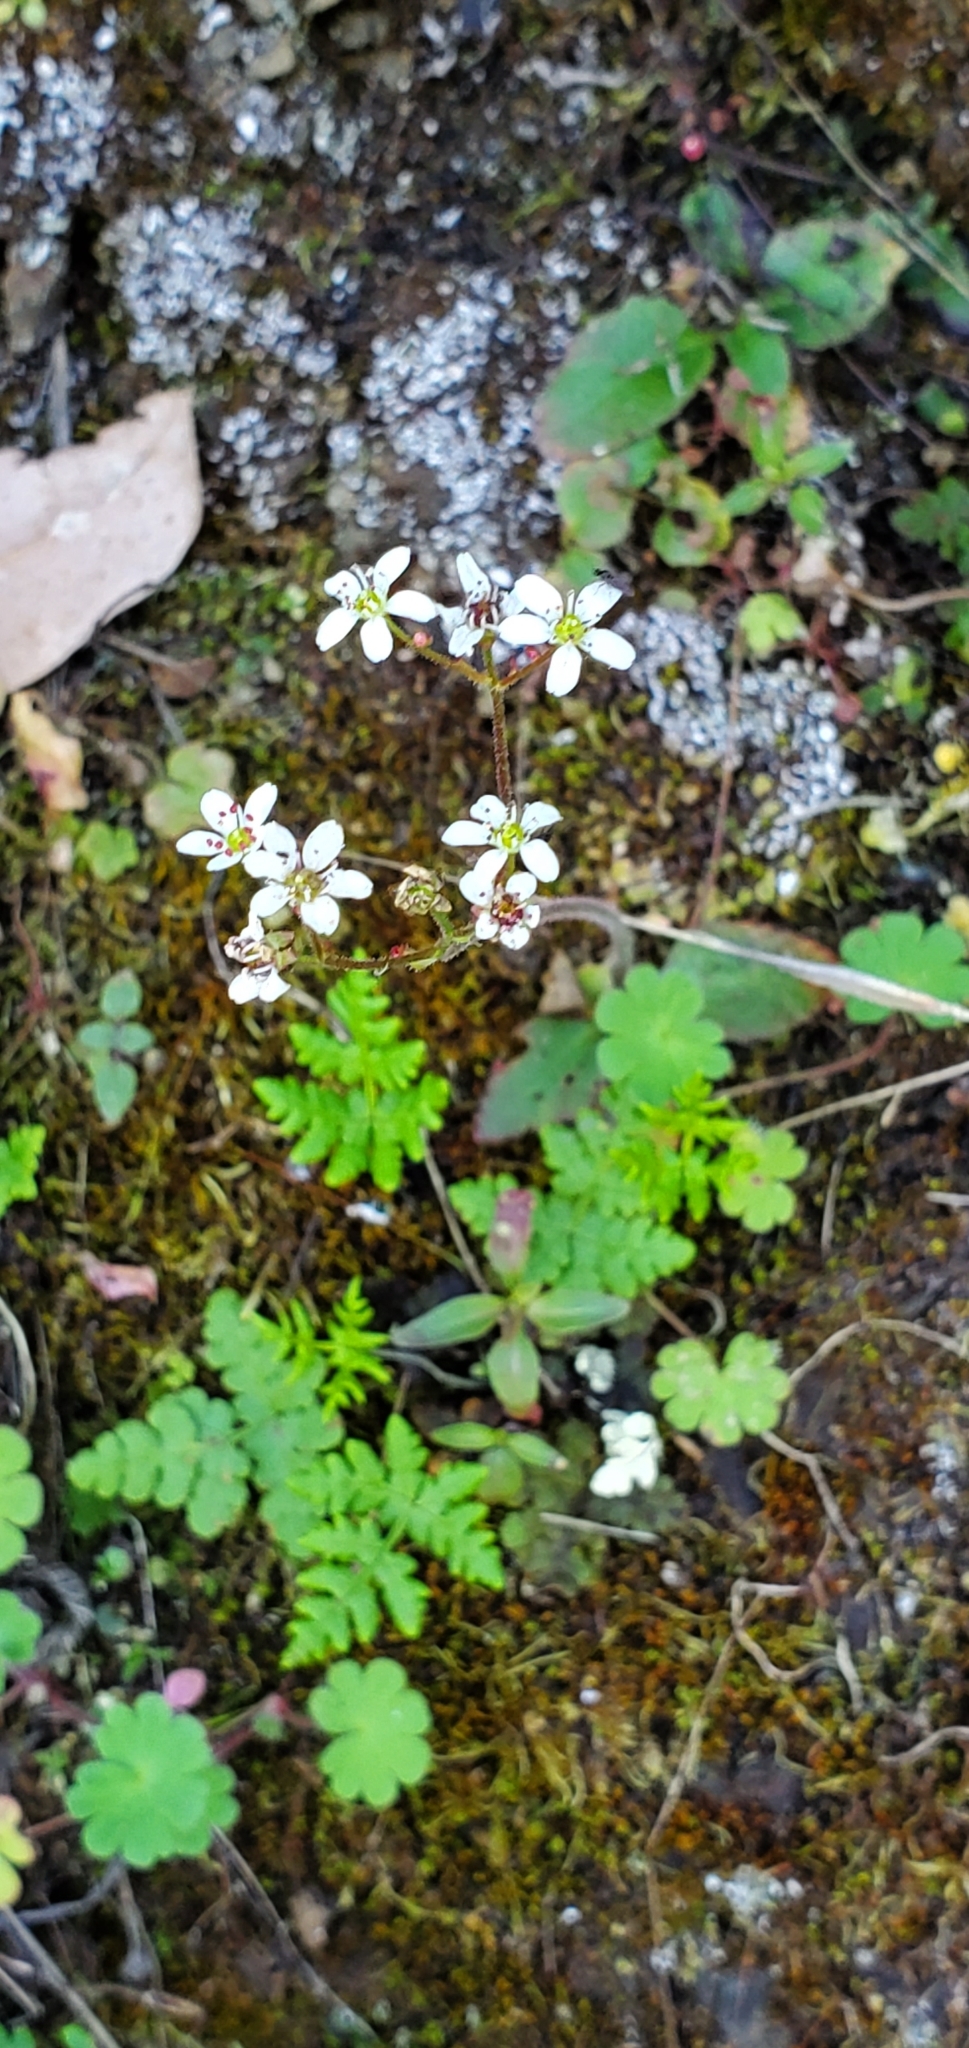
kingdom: Plantae
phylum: Tracheophyta
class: Magnoliopsida
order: Saxifragales
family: Saxifragaceae
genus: Micranthes
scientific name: Micranthes californica
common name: California saxifrage
